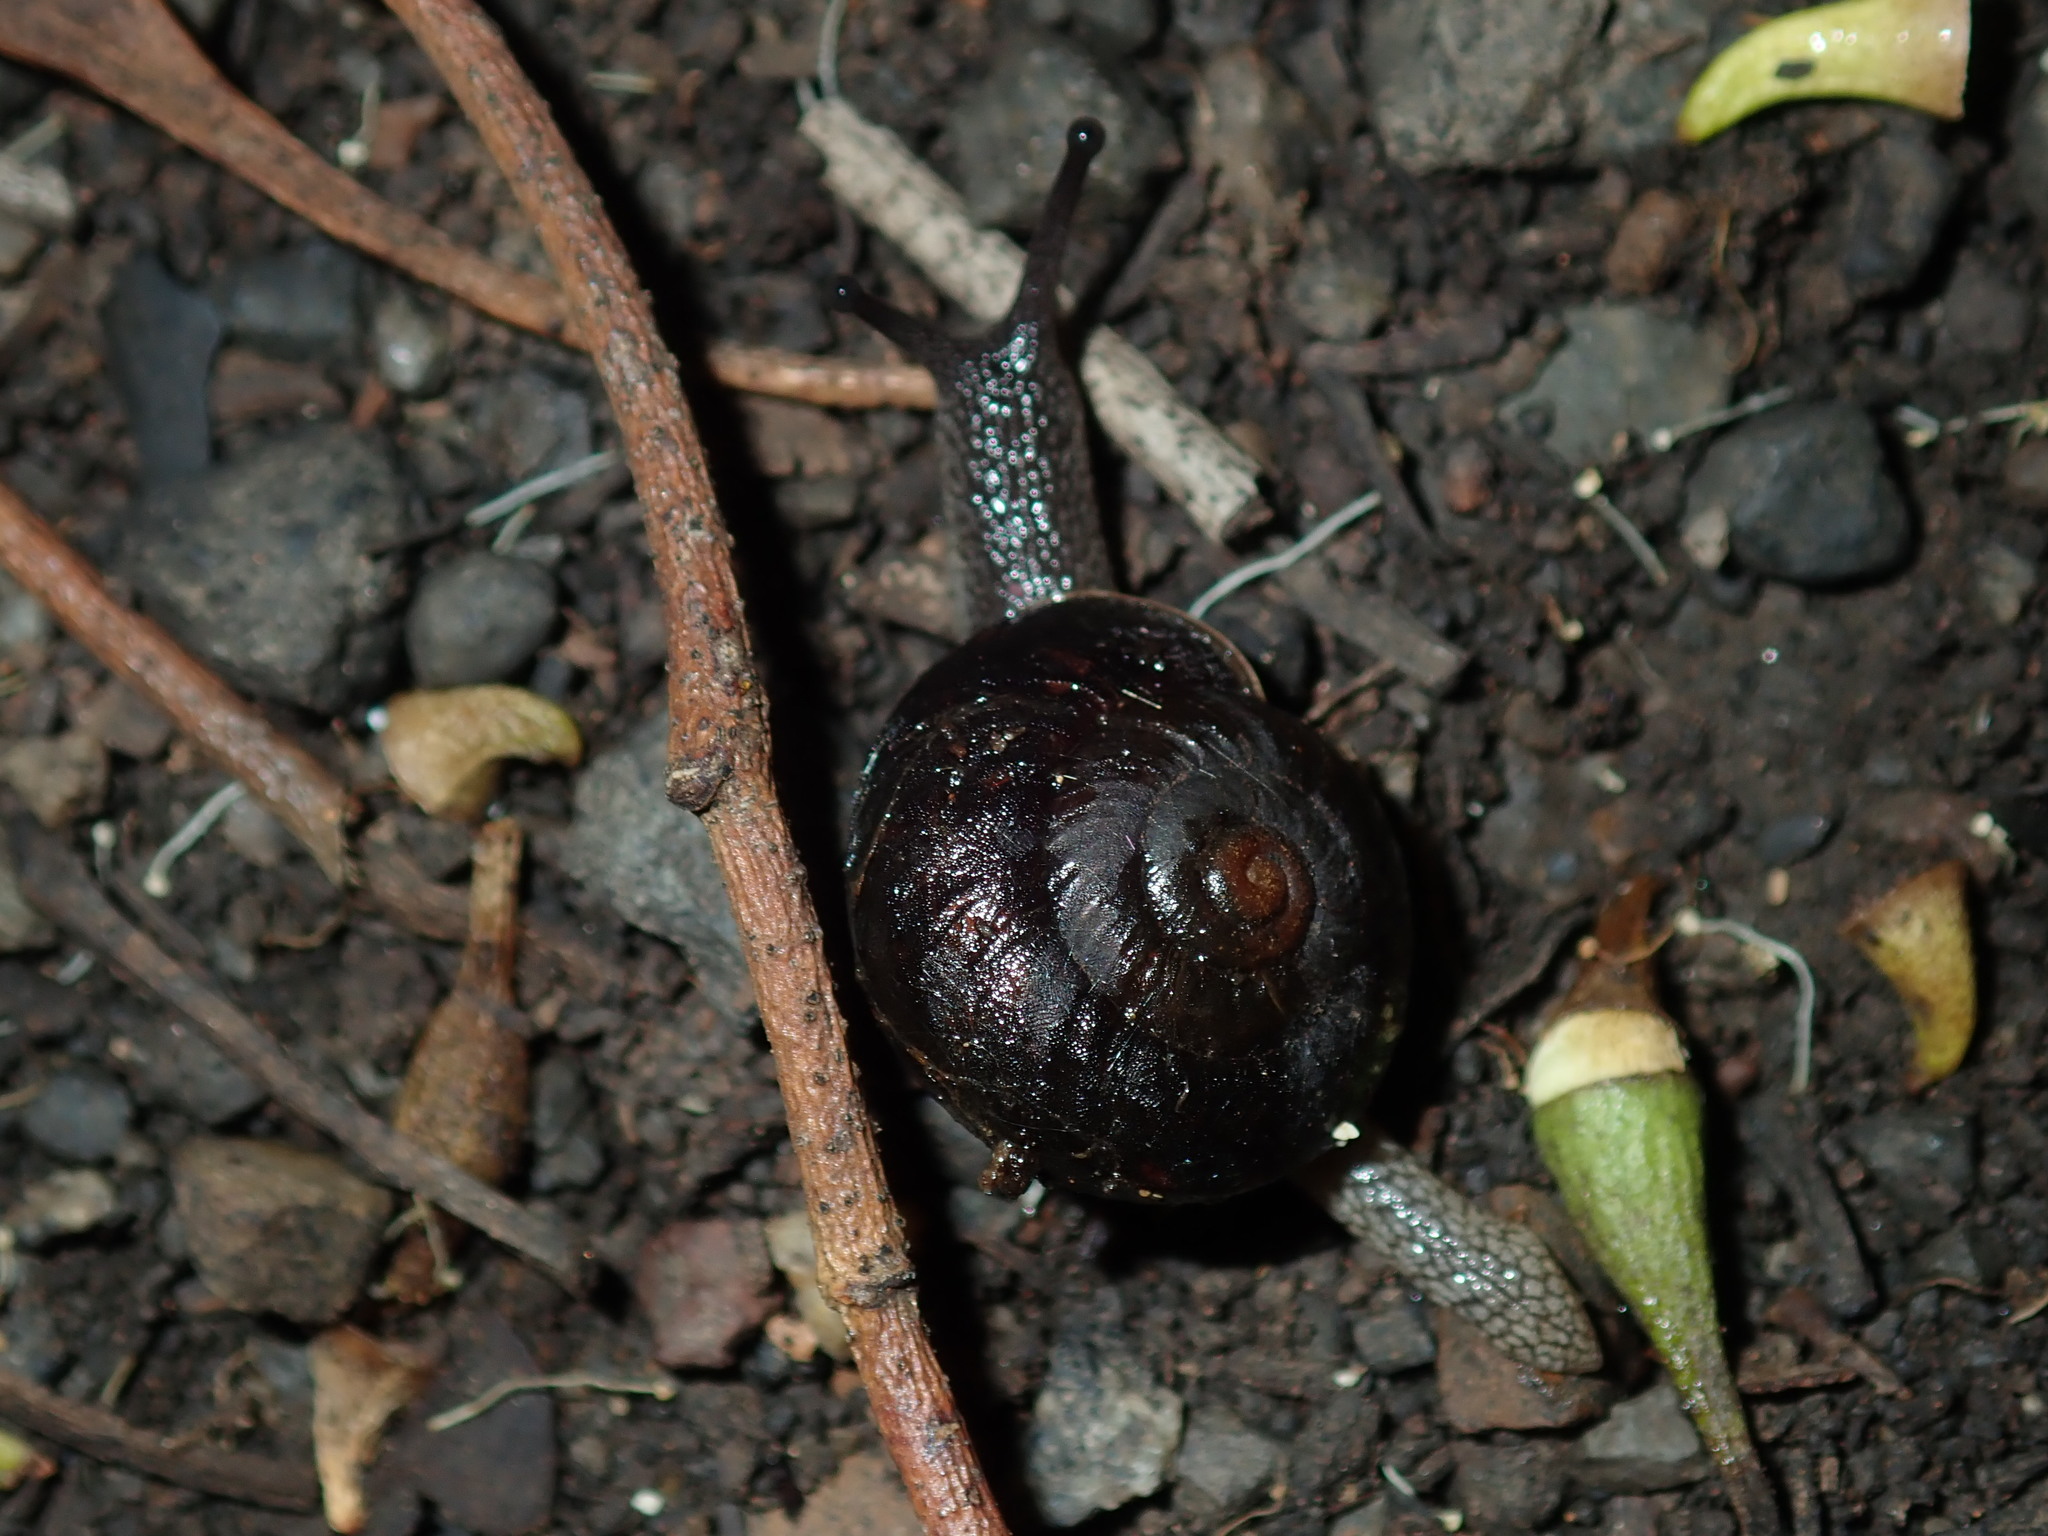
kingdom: Animalia
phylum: Mollusca
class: Gastropoda
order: Stylommatophora
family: Camaenidae
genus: Sauroconcha
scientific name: Sauroconcha sheai
